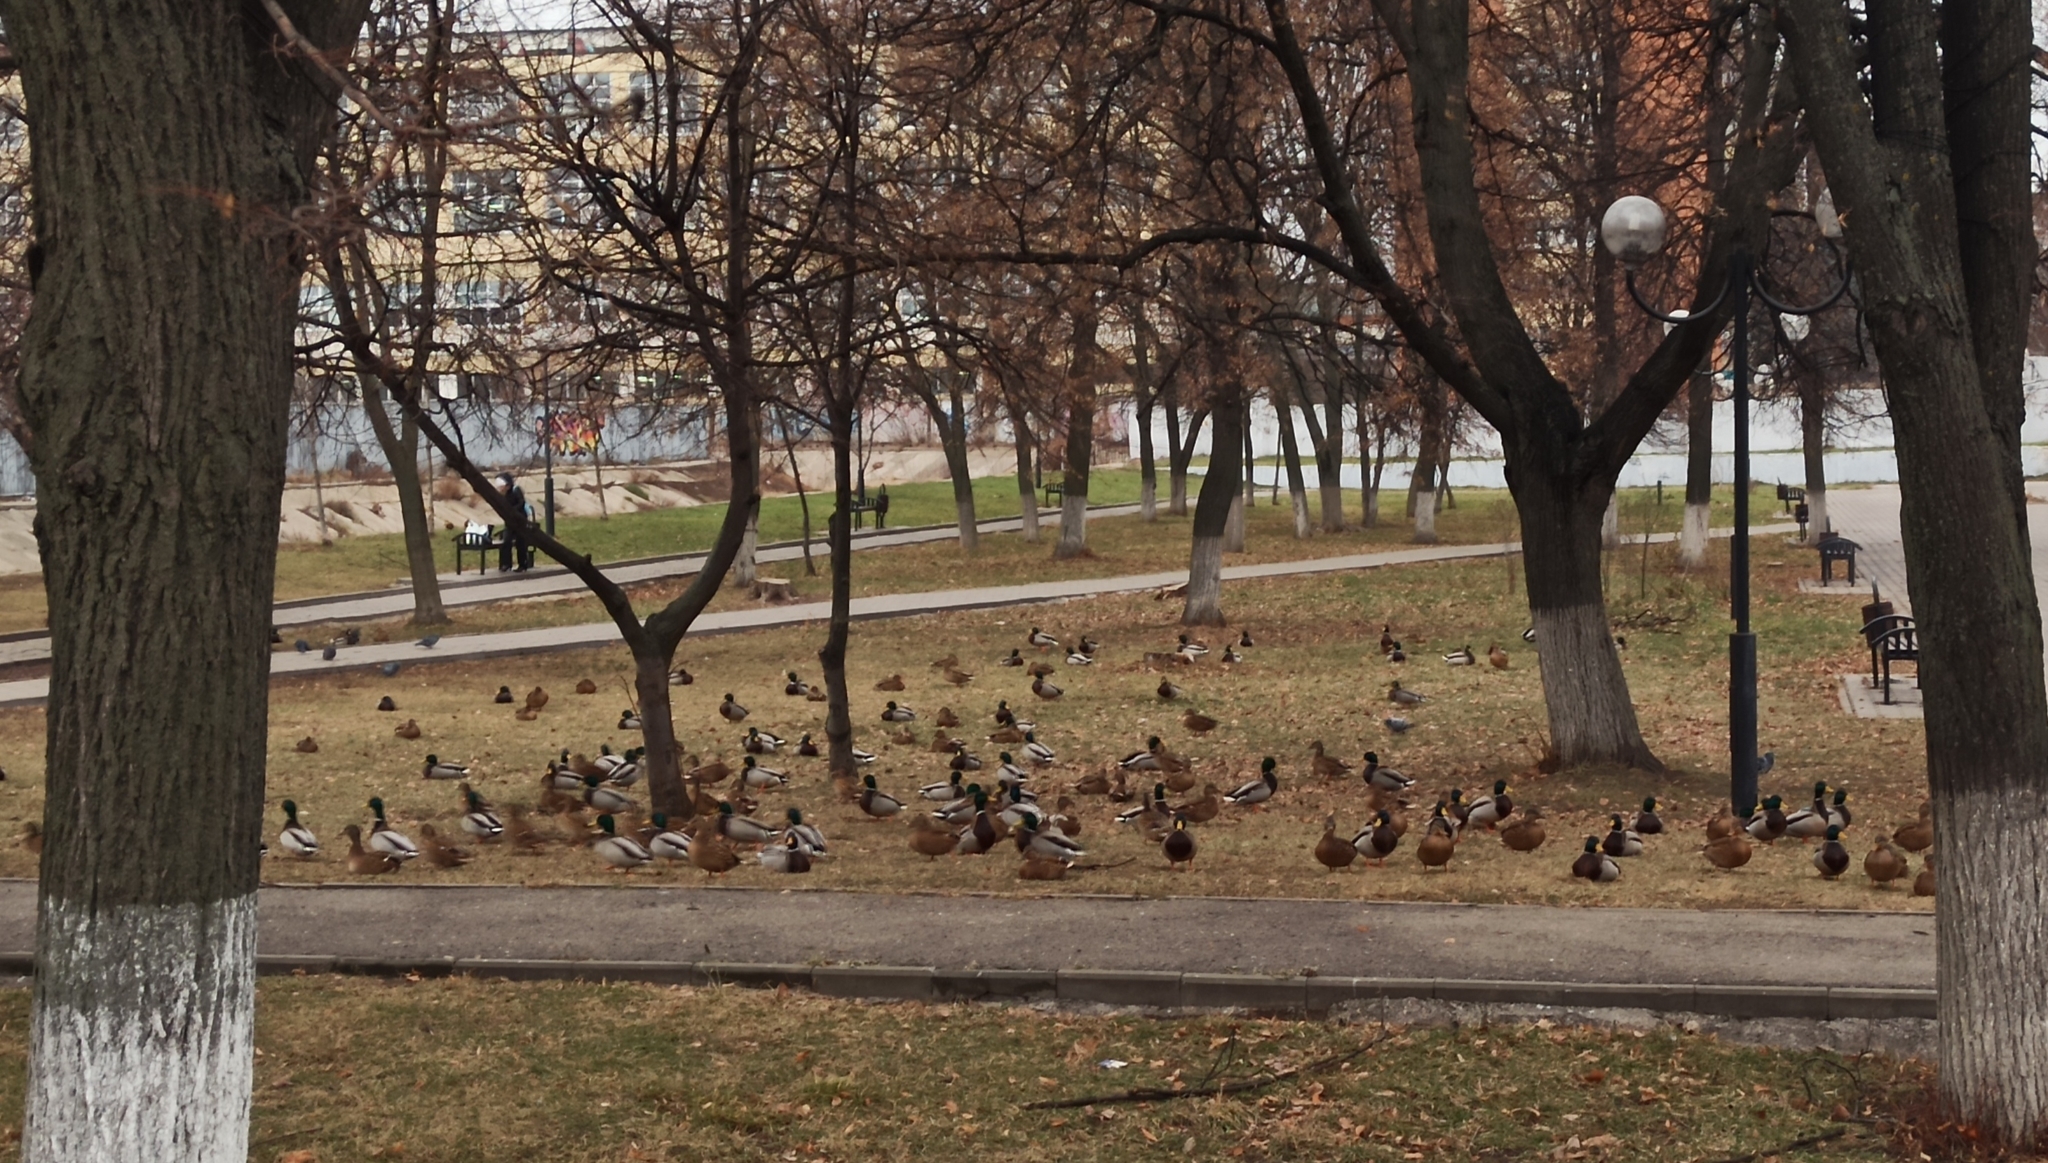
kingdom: Animalia
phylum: Chordata
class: Aves
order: Anseriformes
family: Anatidae
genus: Anas
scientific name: Anas platyrhynchos
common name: Mallard
